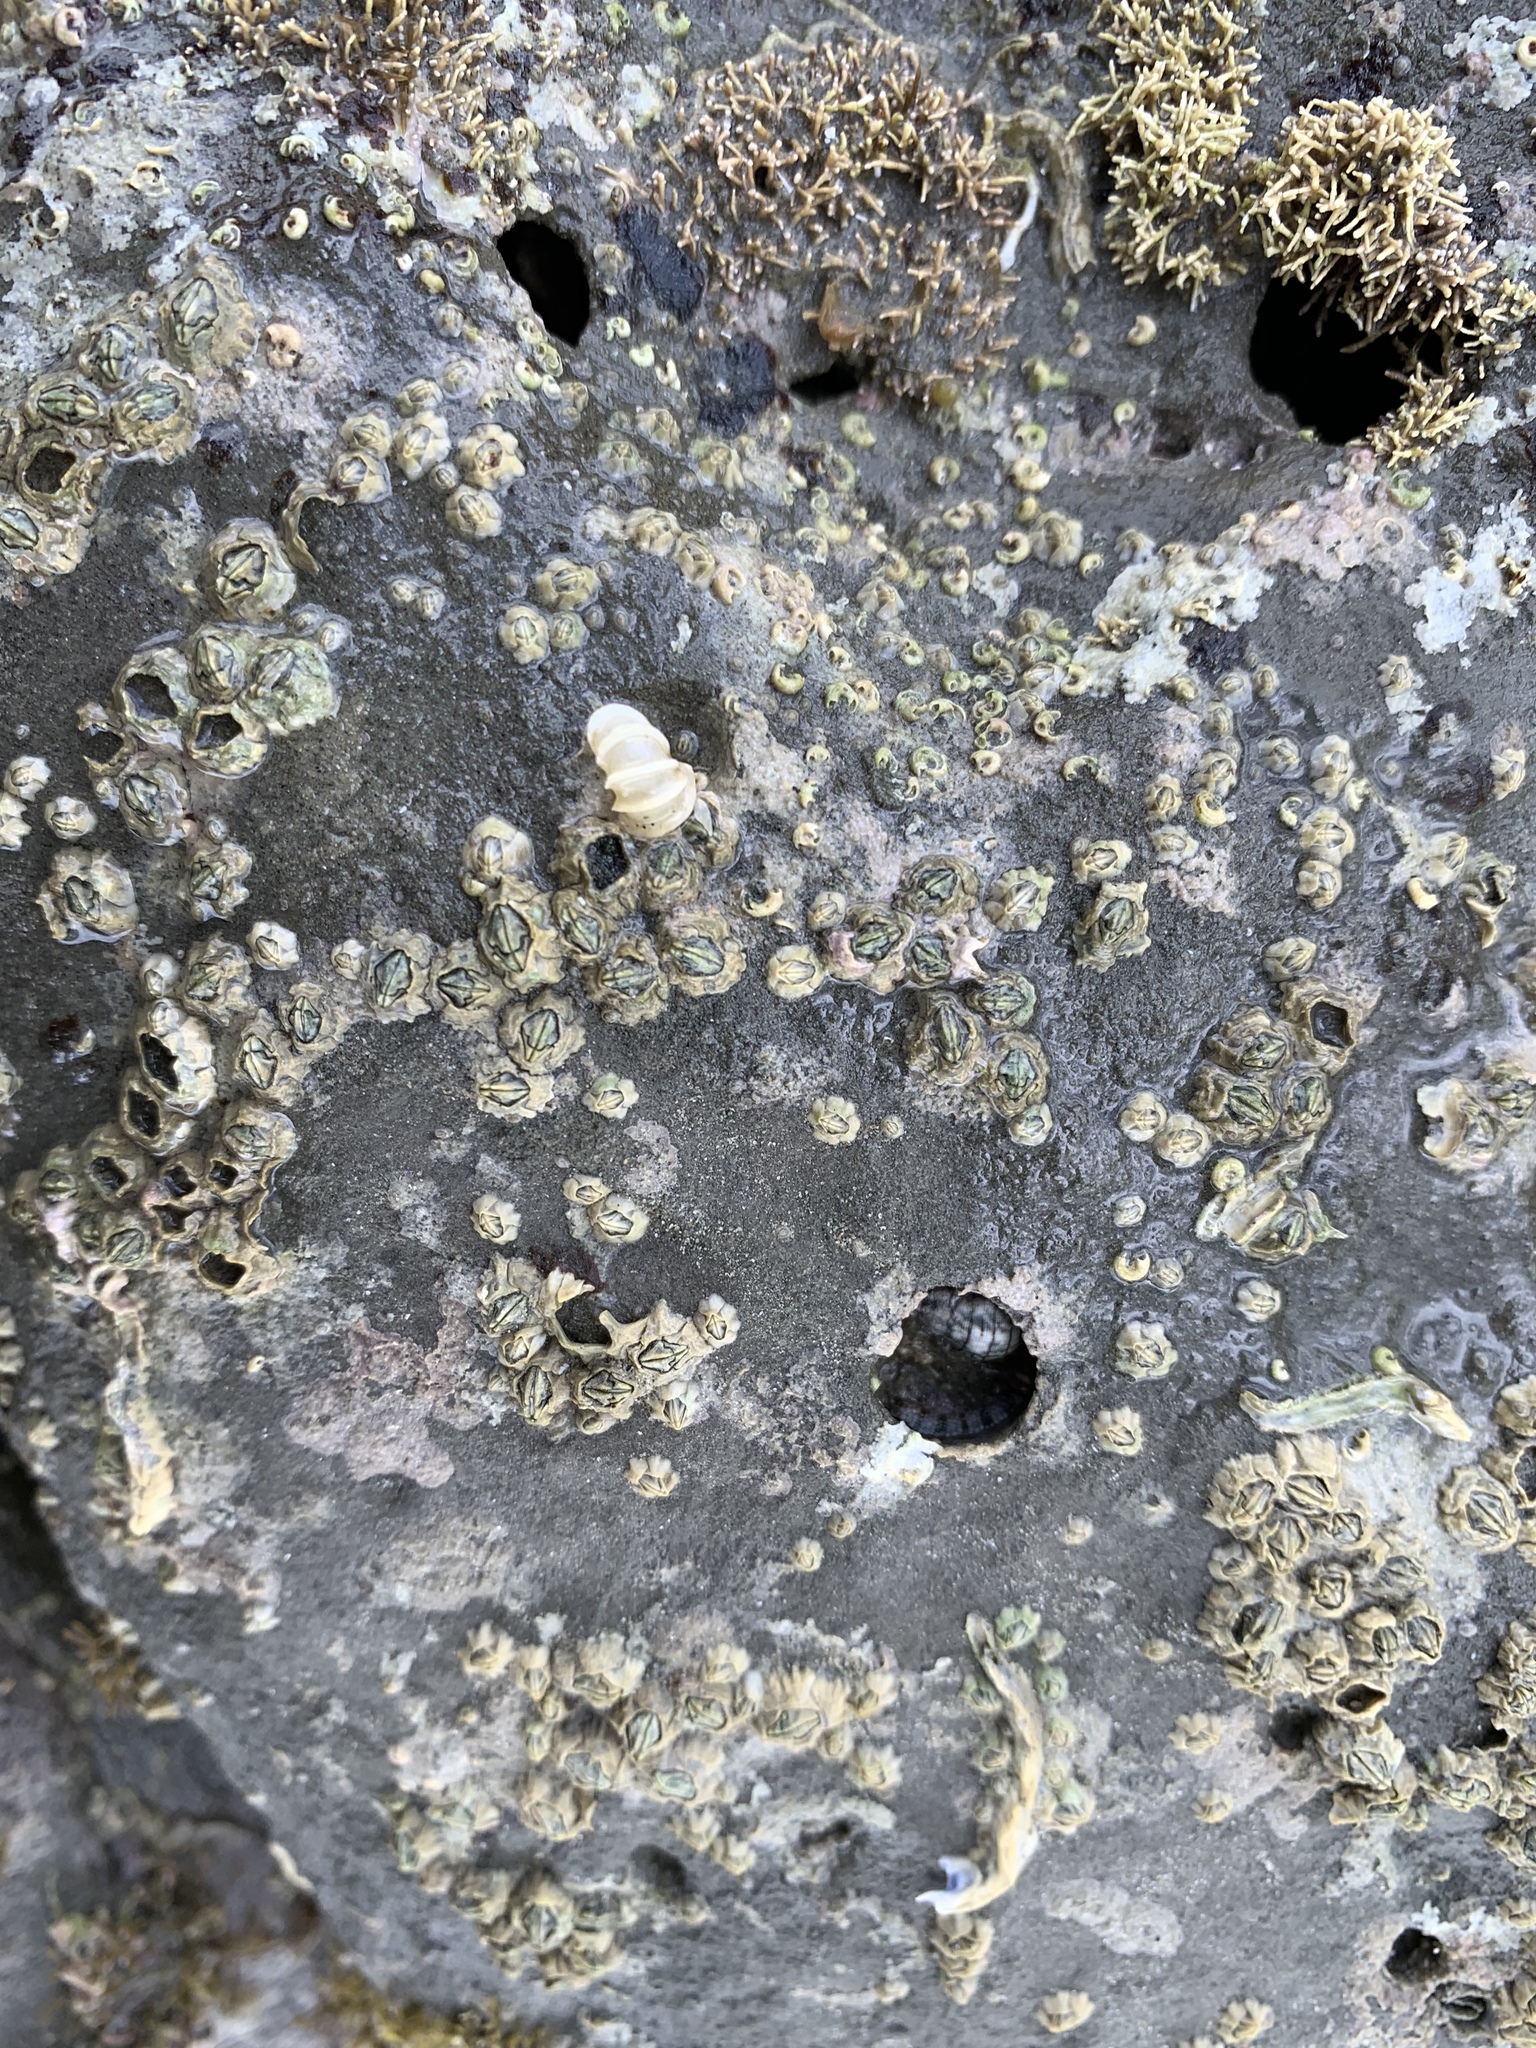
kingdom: Animalia
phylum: Mollusca
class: Gastropoda
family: Epitoniidae
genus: Epitonium
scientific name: Epitonium minorum
